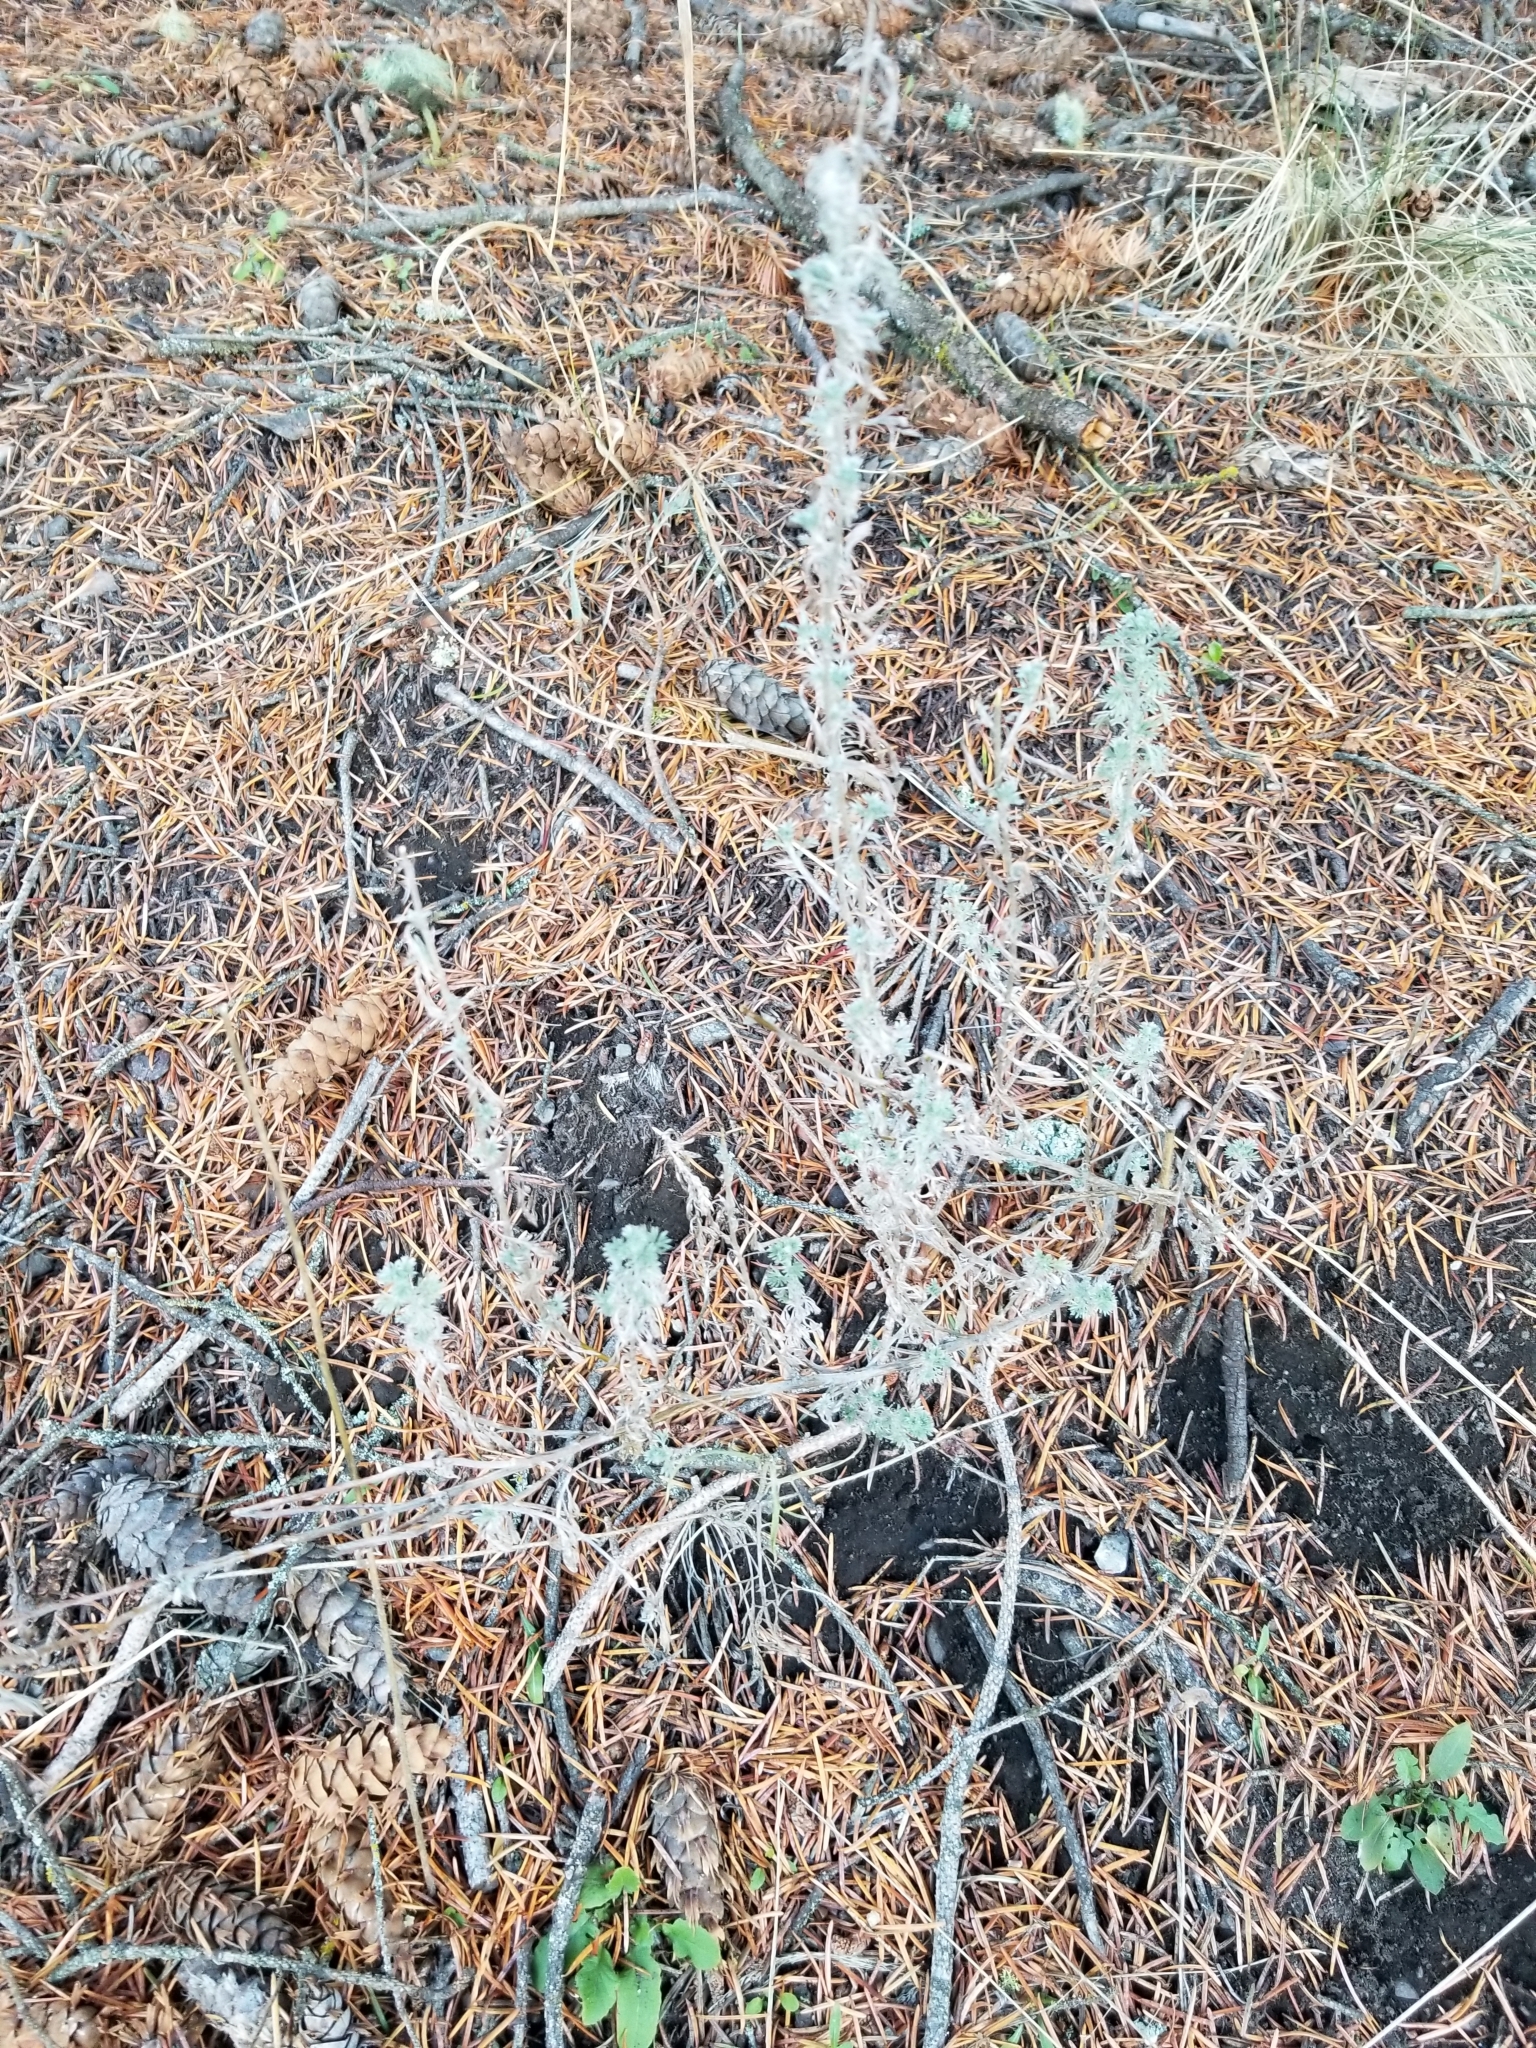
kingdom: Plantae
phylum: Tracheophyta
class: Magnoliopsida
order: Asterales
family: Asteraceae
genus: Artemisia
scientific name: Artemisia frigida
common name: Prairie sagewort
